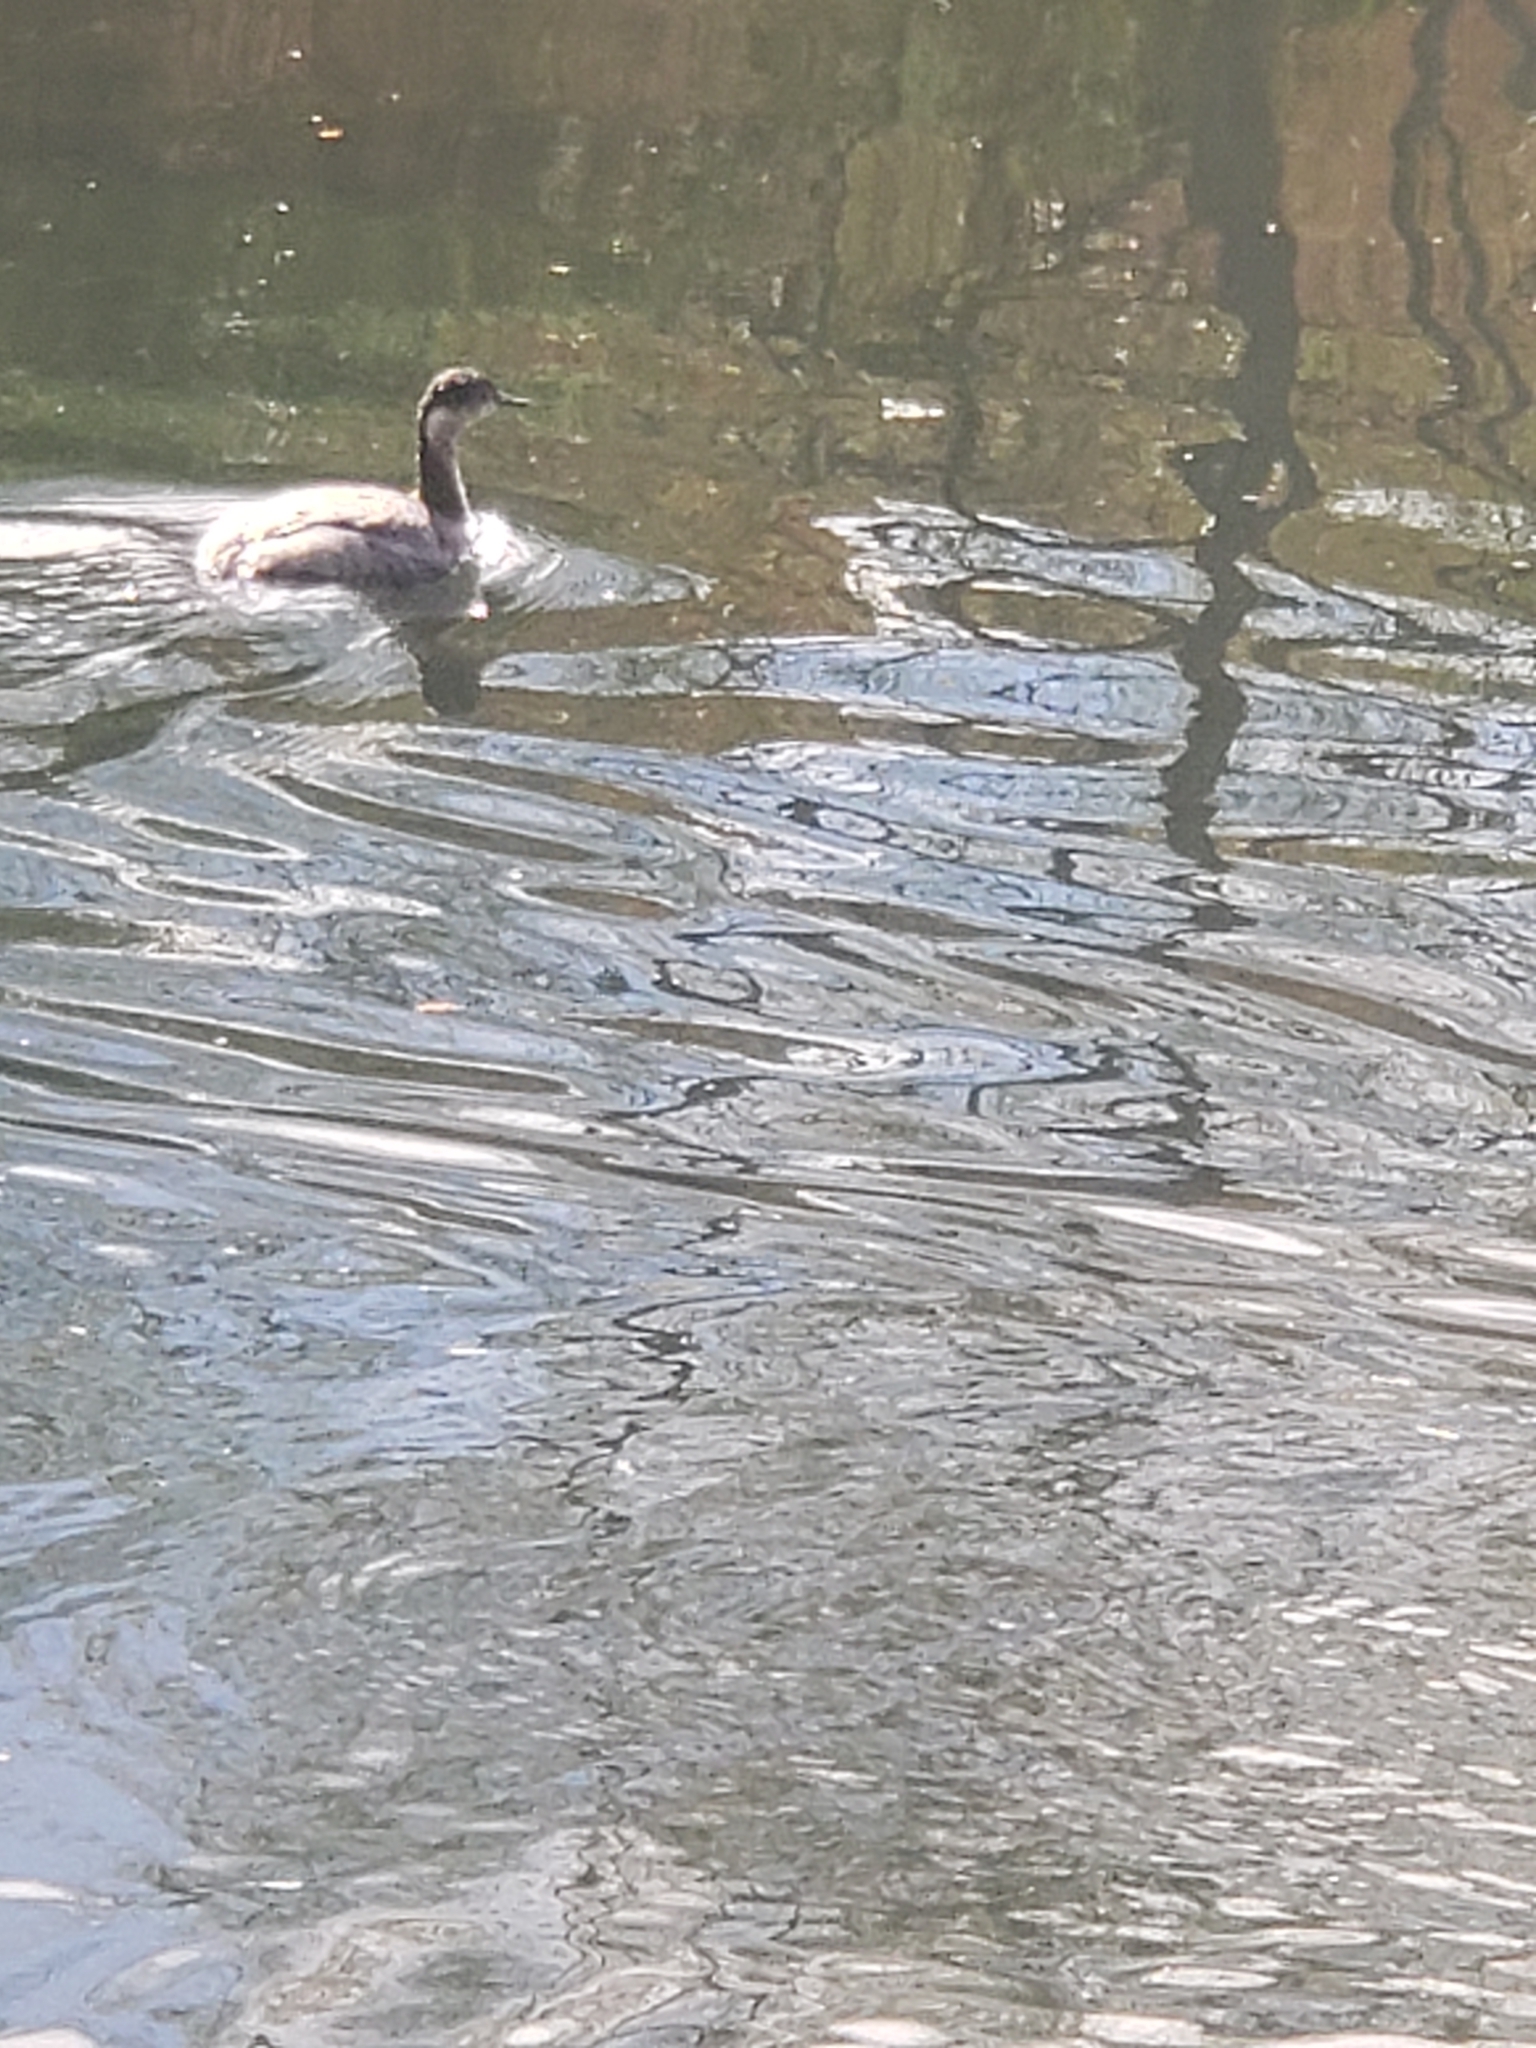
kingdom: Animalia
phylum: Chordata
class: Aves
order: Podicipediformes
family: Podicipedidae
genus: Podiceps
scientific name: Podiceps nigricollis
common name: Black-necked grebe
